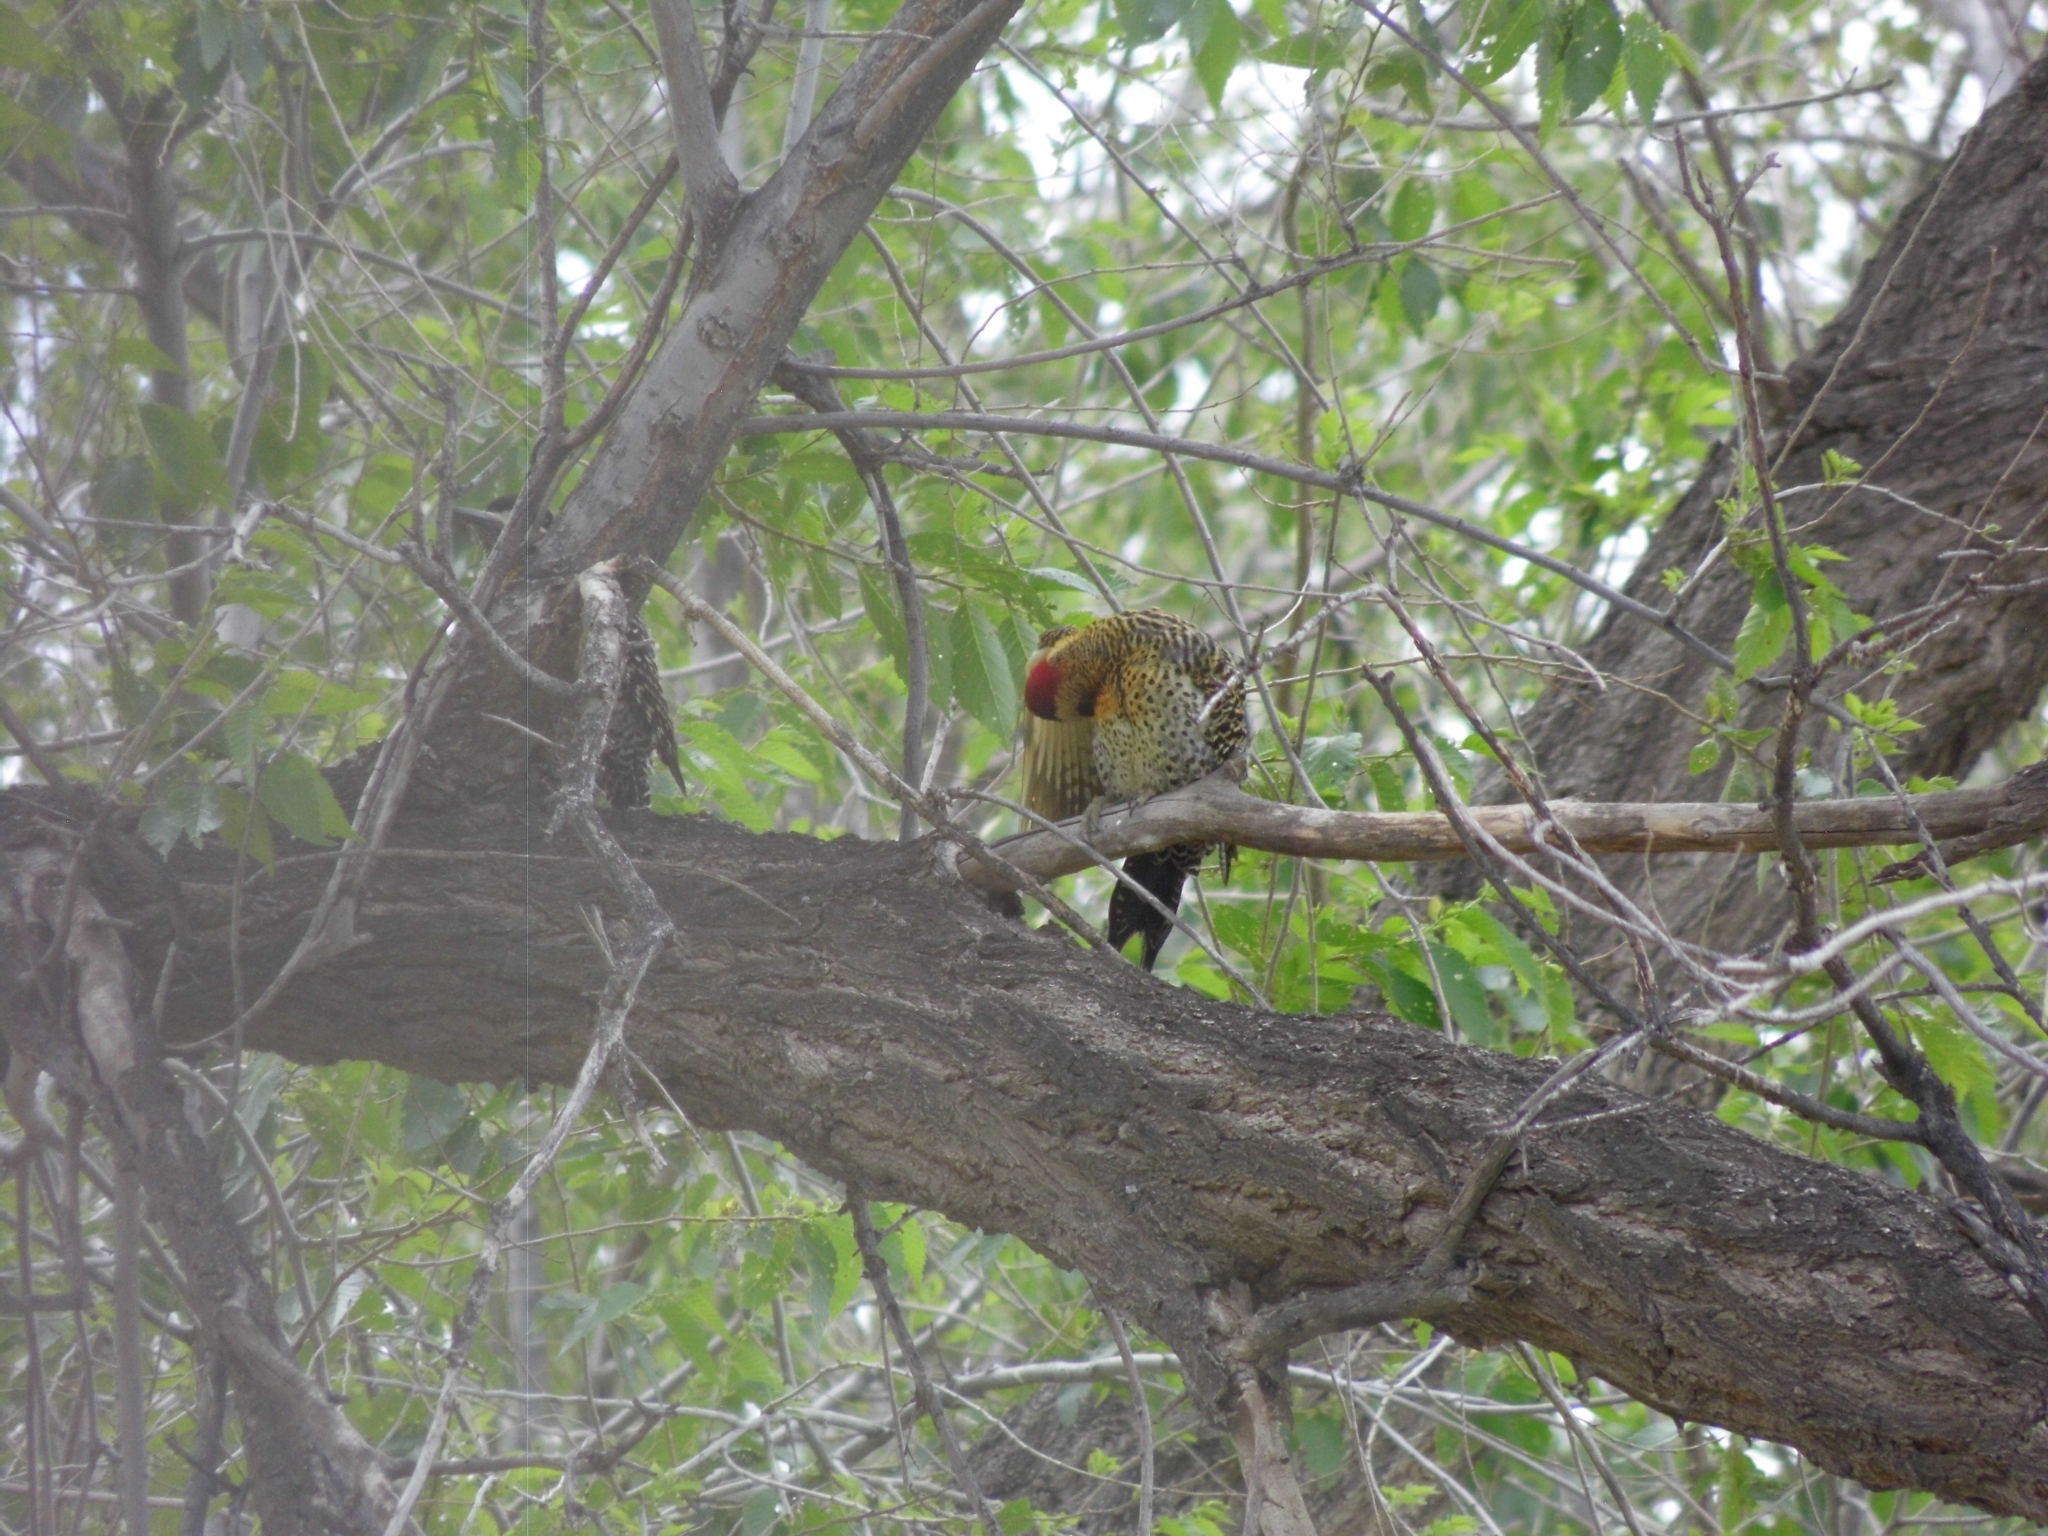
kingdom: Animalia
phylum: Chordata
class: Aves
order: Piciformes
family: Picidae
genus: Colaptes
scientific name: Colaptes melanochloros
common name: Green-barred woodpecker
